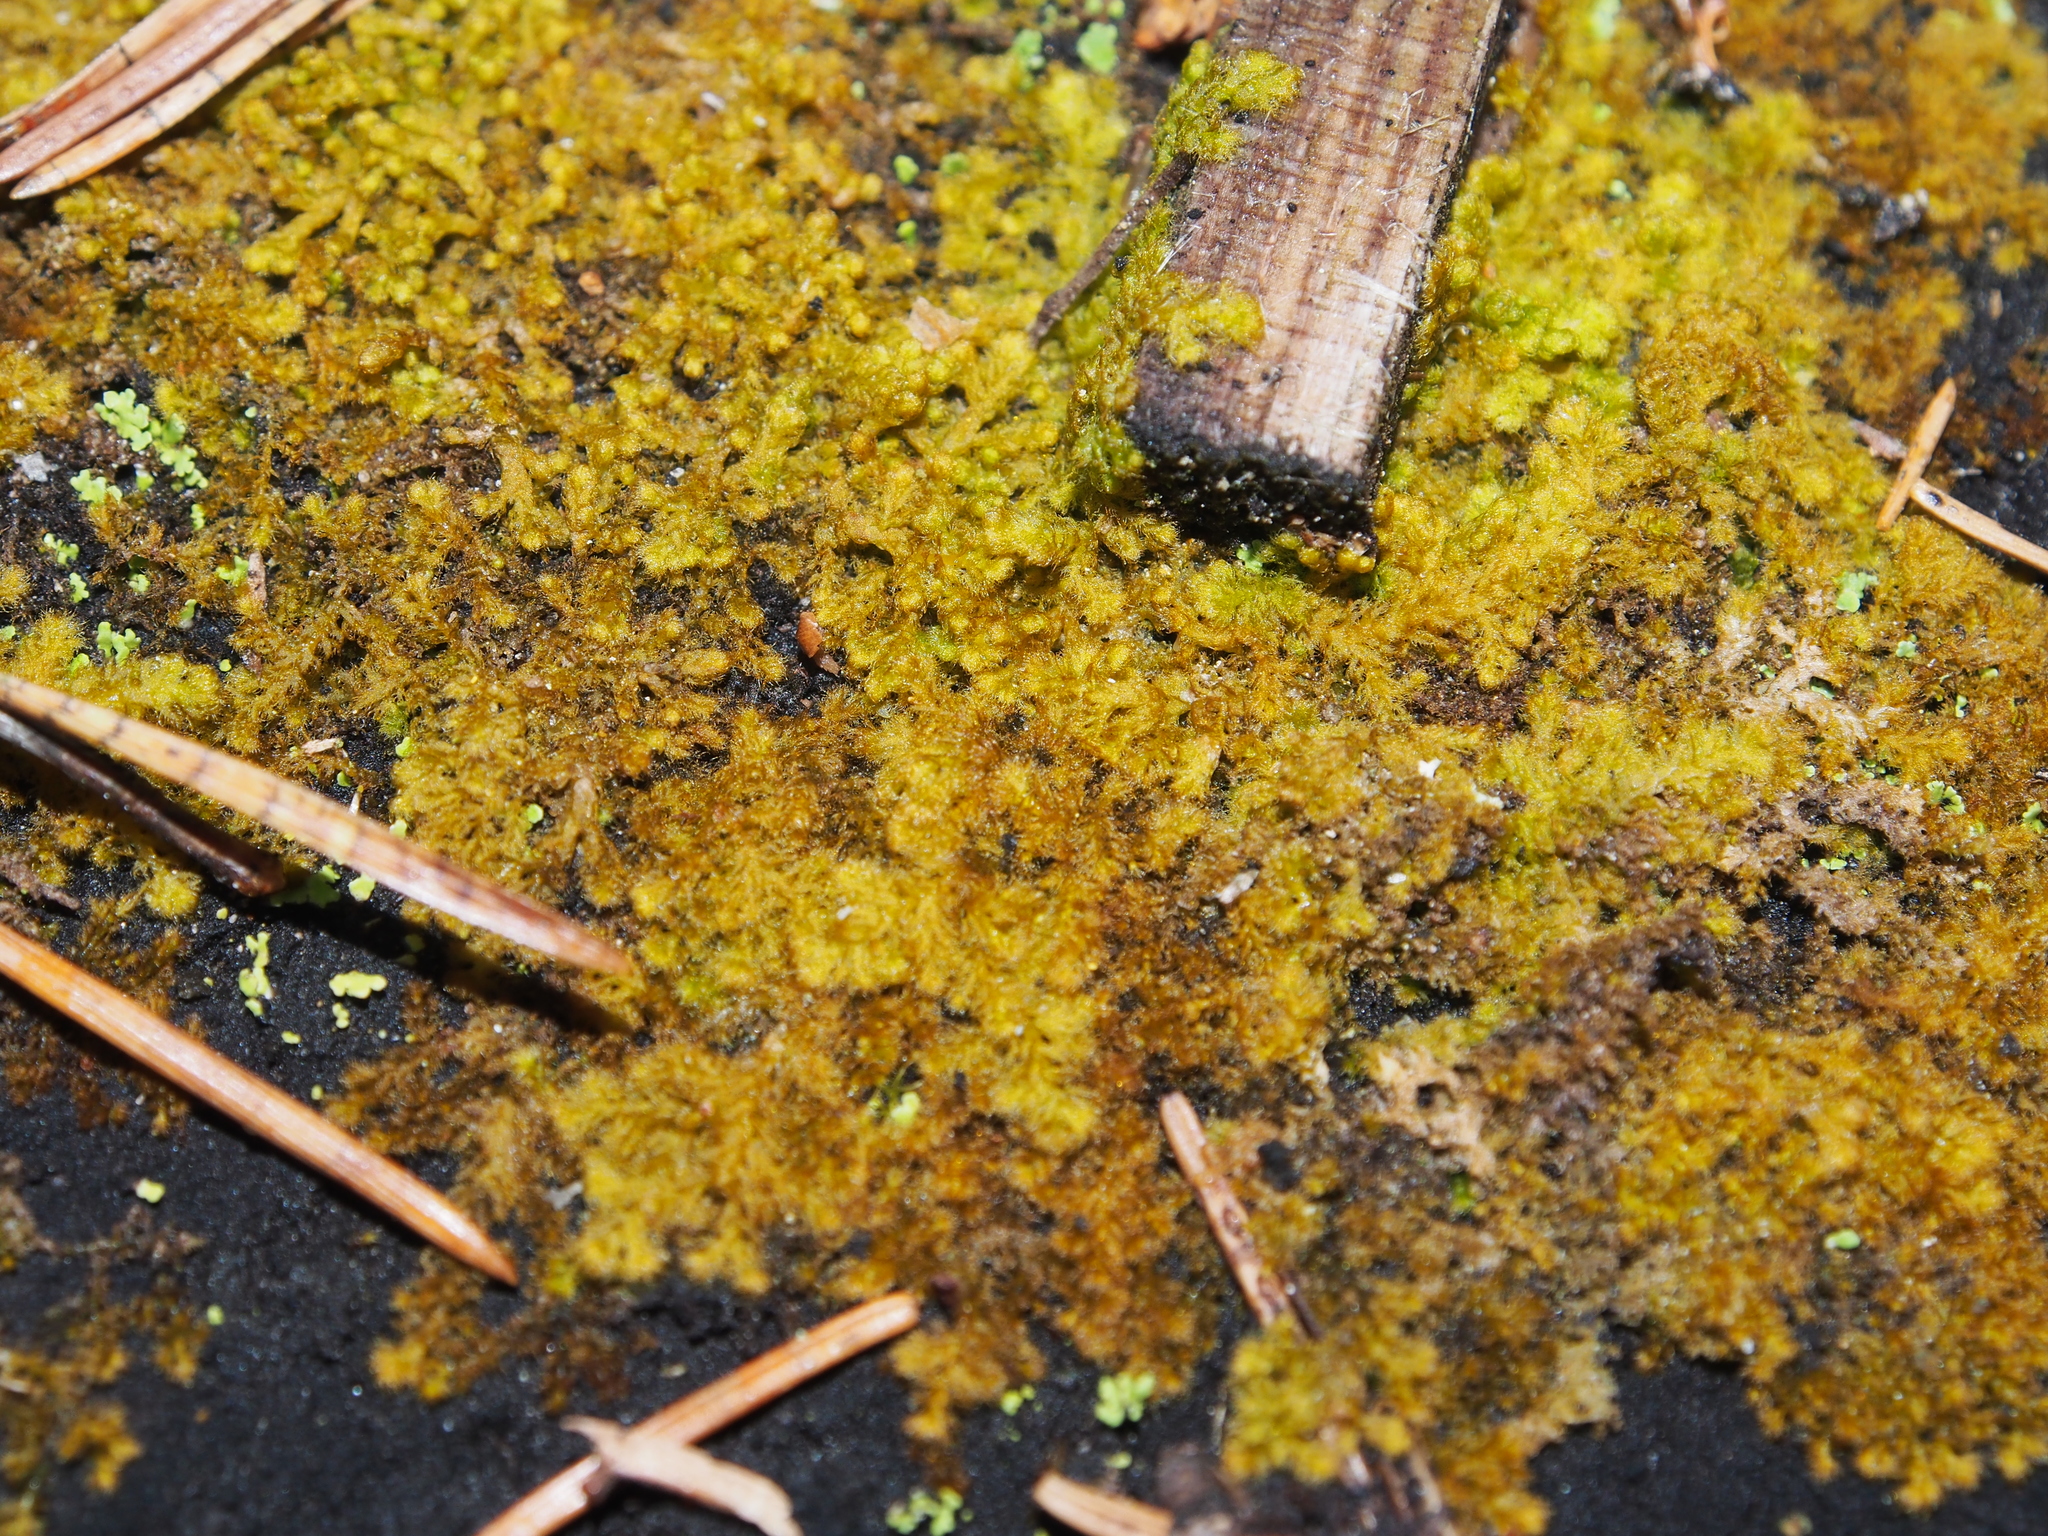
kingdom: Plantae
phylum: Marchantiophyta
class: Jungermanniopsida
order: Ptilidiales
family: Ptilidiaceae
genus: Ptilidium
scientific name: Ptilidium pulcherrimum
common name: Tree fringewort
